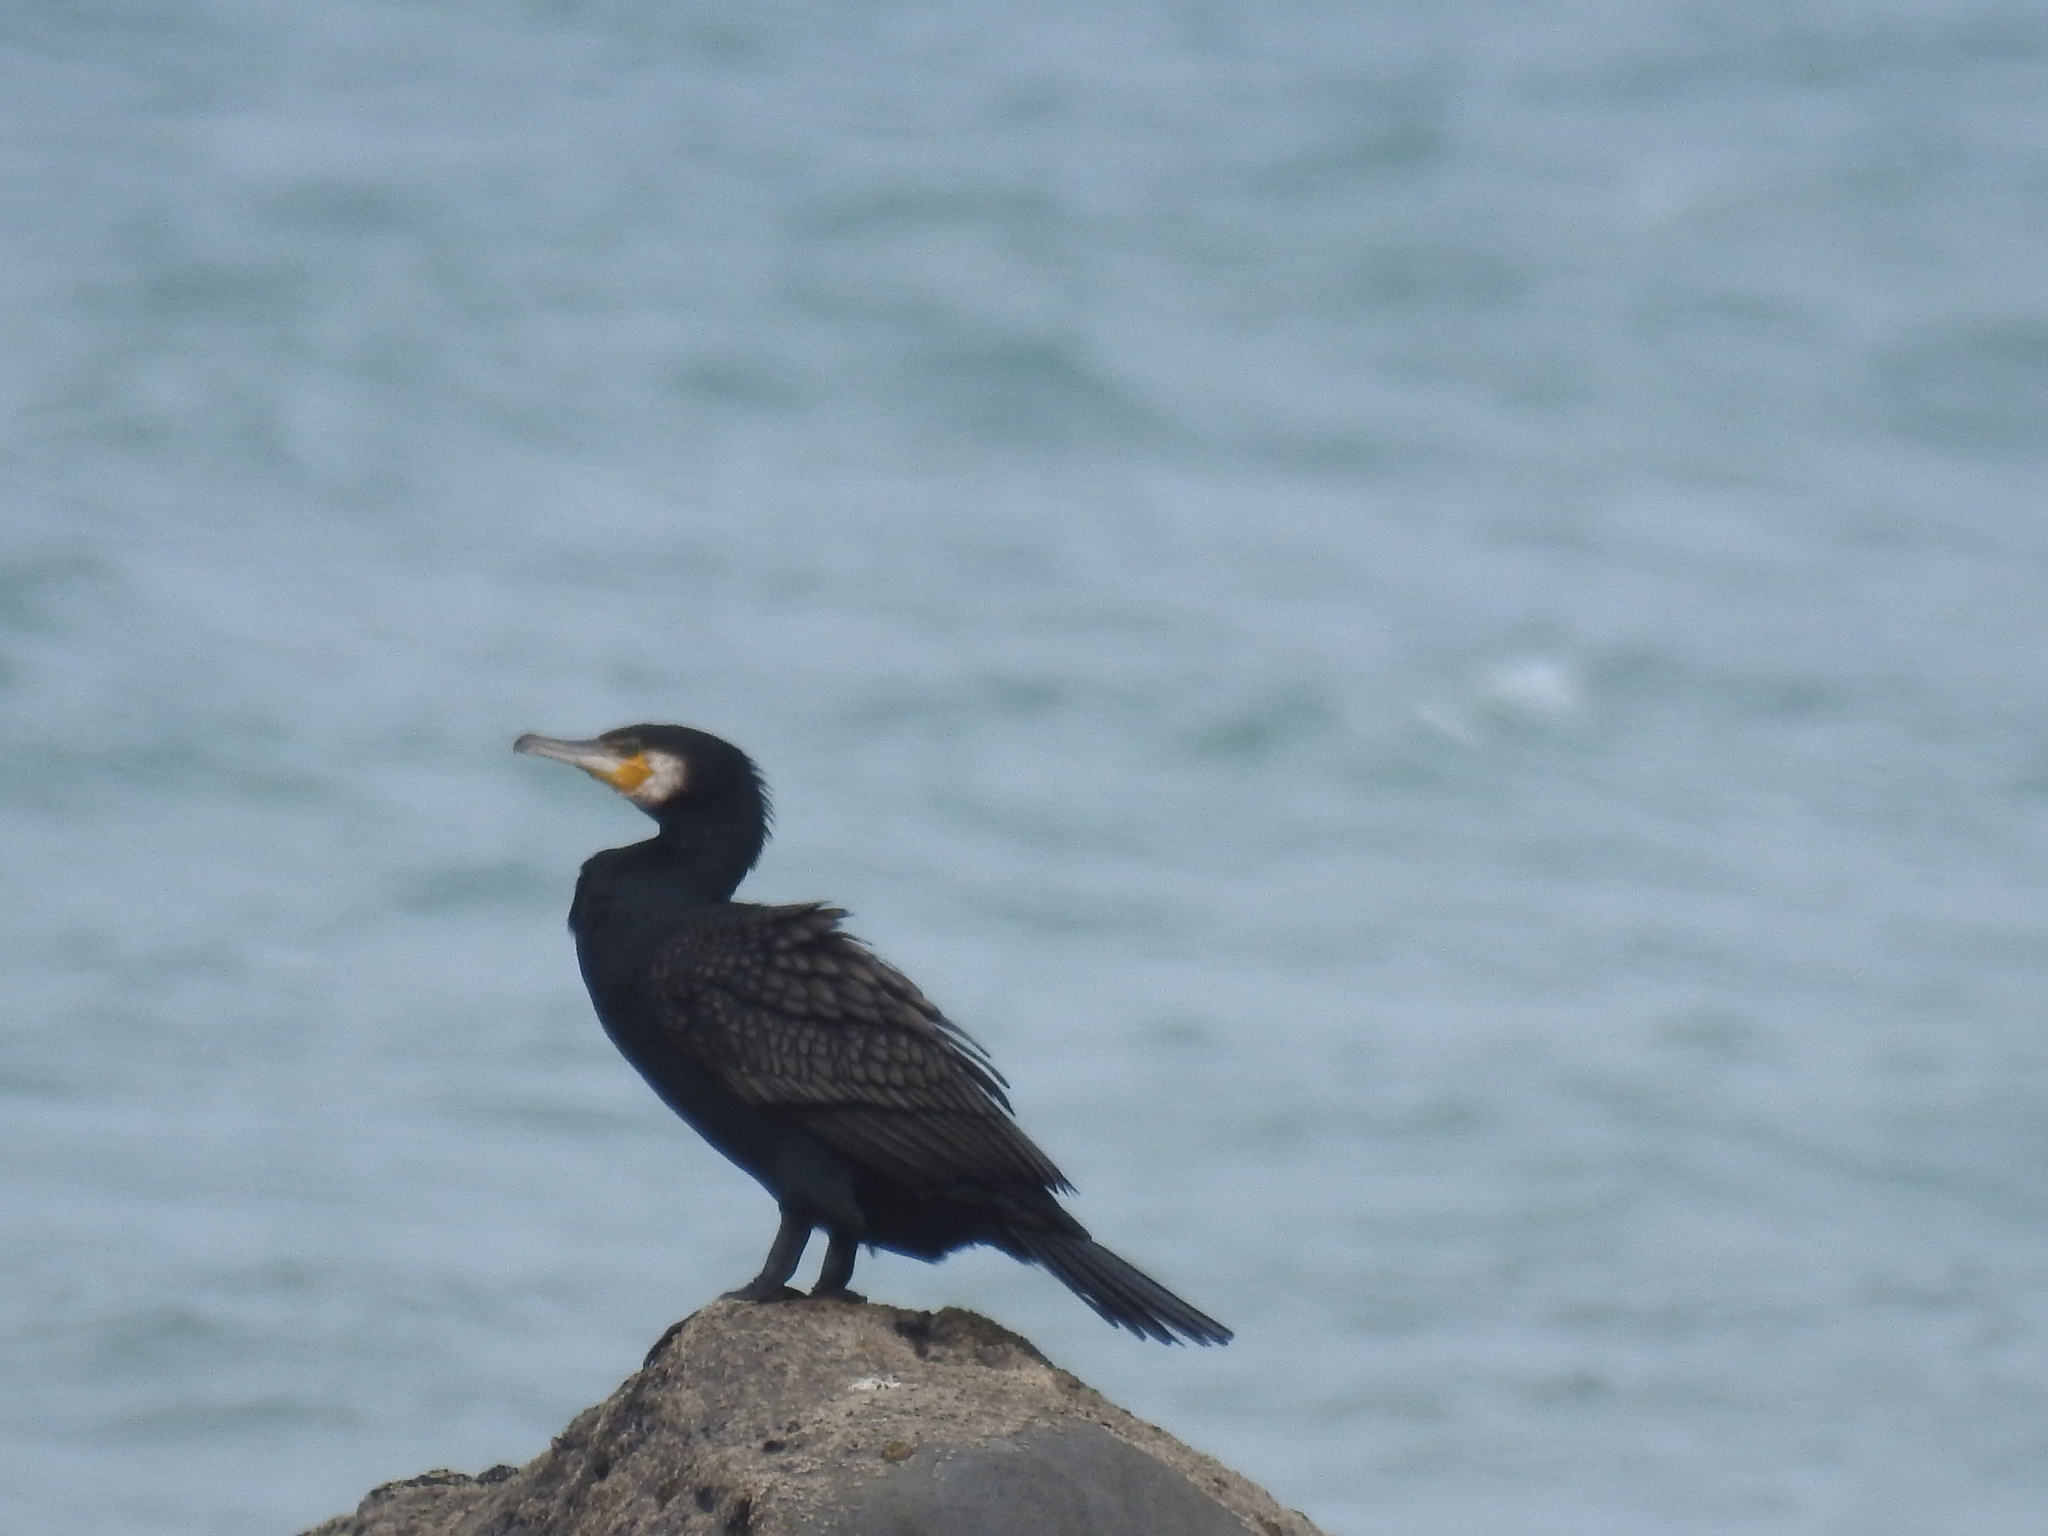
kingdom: Animalia
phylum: Chordata
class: Aves
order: Suliformes
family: Phalacrocoracidae
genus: Phalacrocorax
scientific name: Phalacrocorax carbo
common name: Great cormorant
